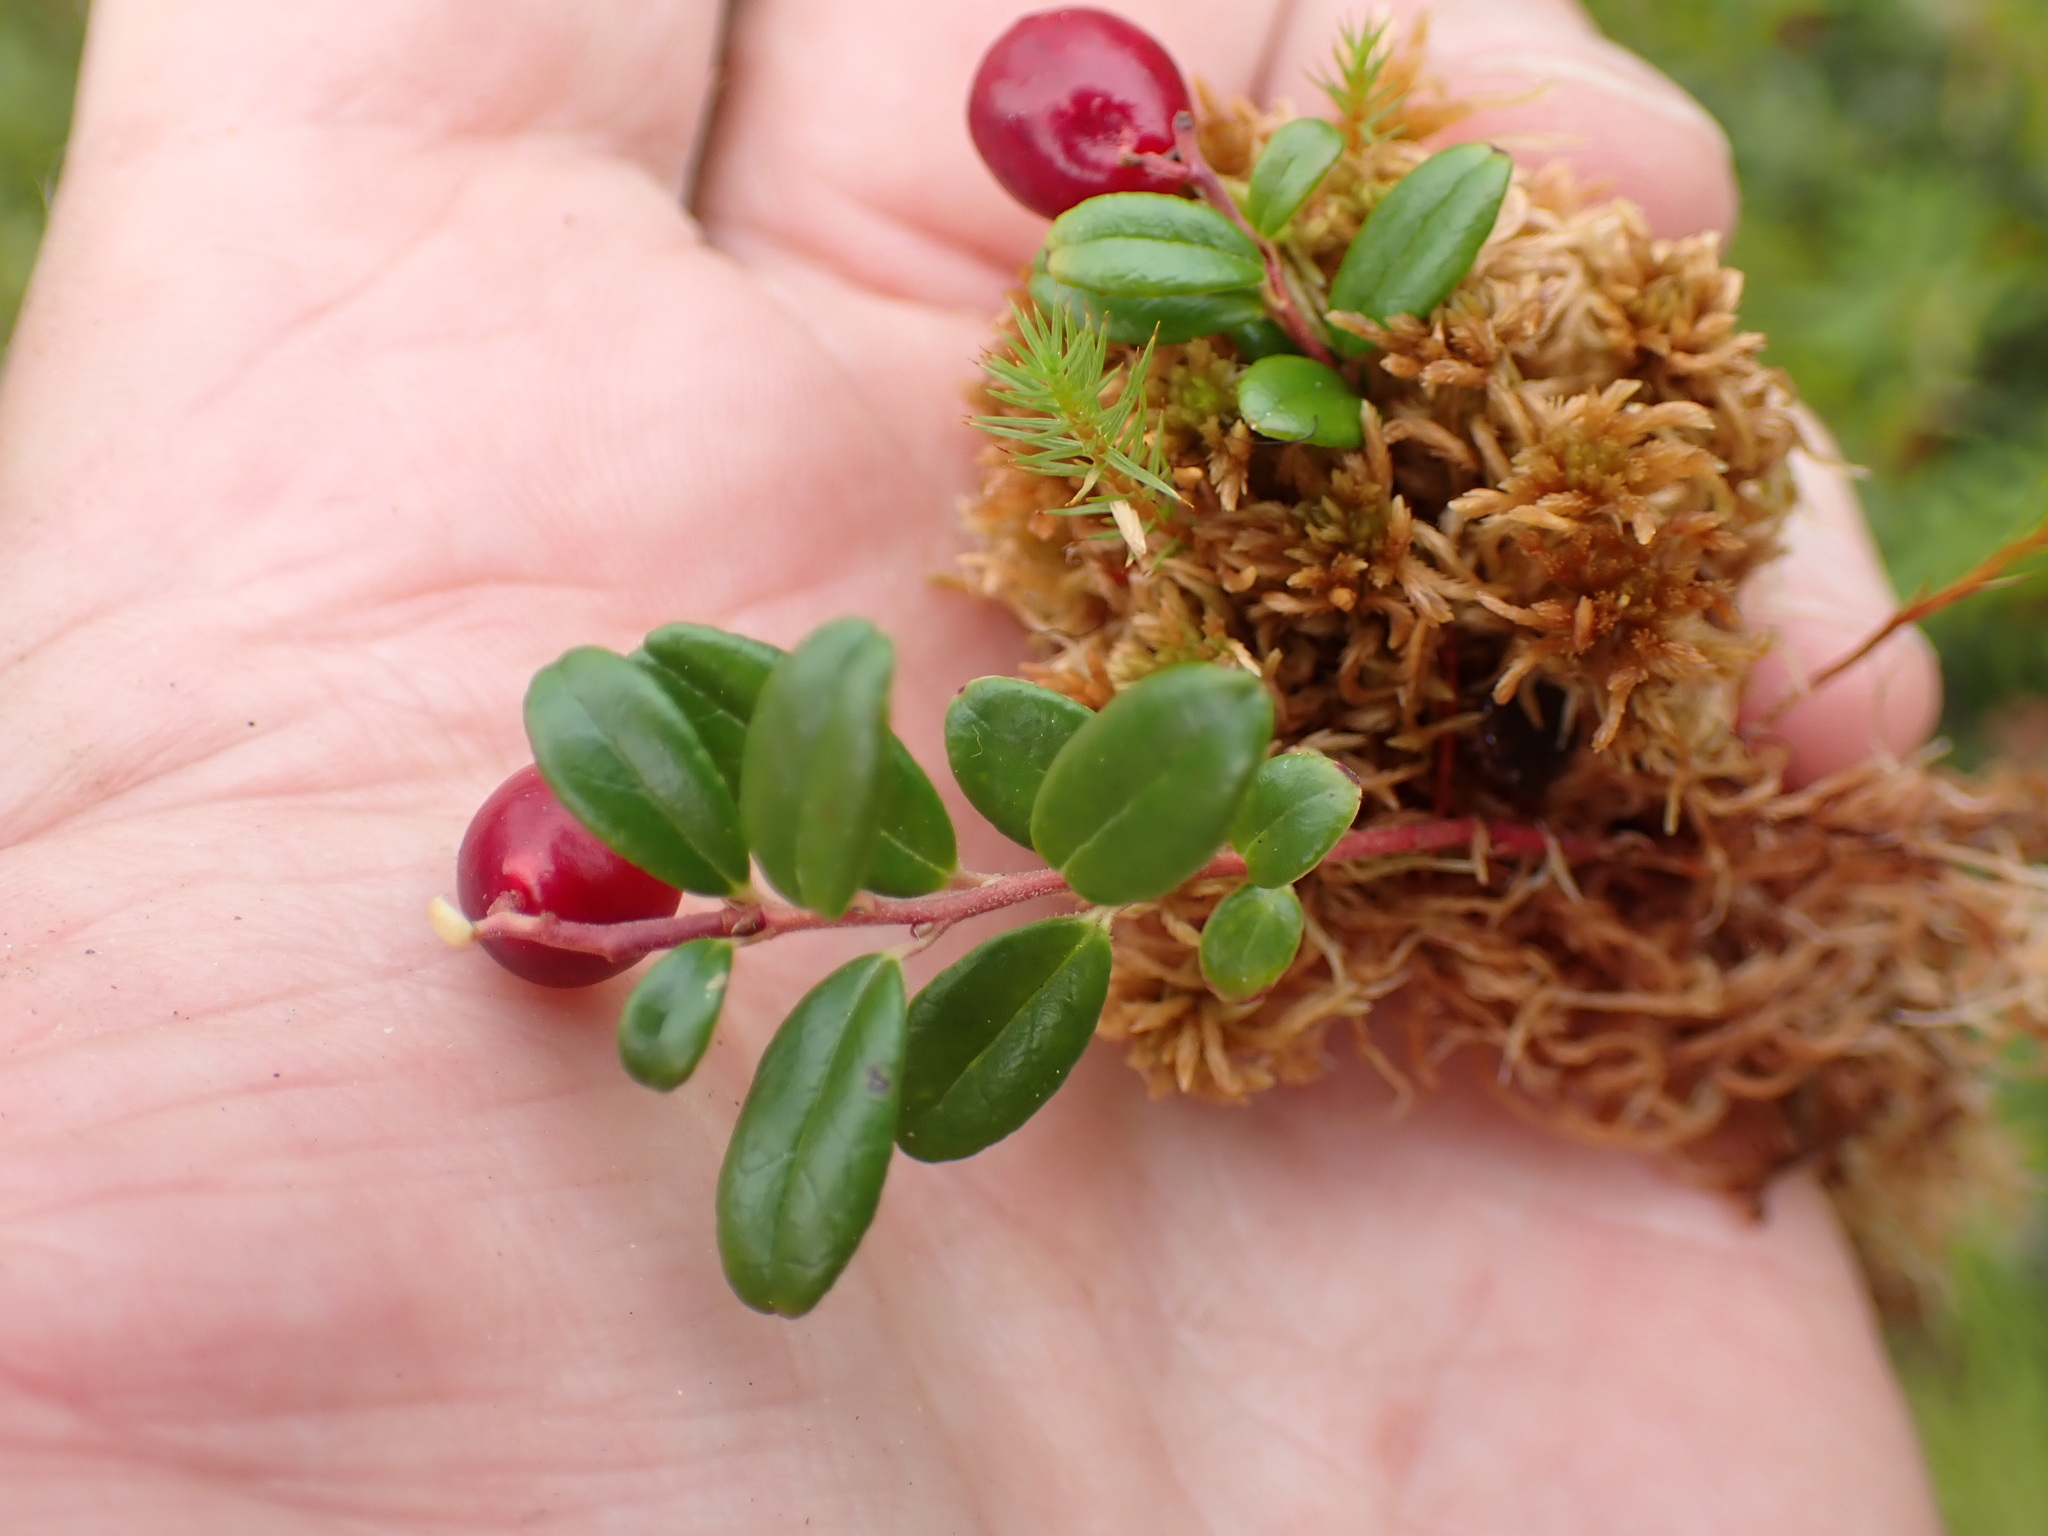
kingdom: Plantae
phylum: Tracheophyta
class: Magnoliopsida
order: Ericales
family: Ericaceae
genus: Vaccinium
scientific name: Vaccinium vitis-idaea
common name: Cowberry
